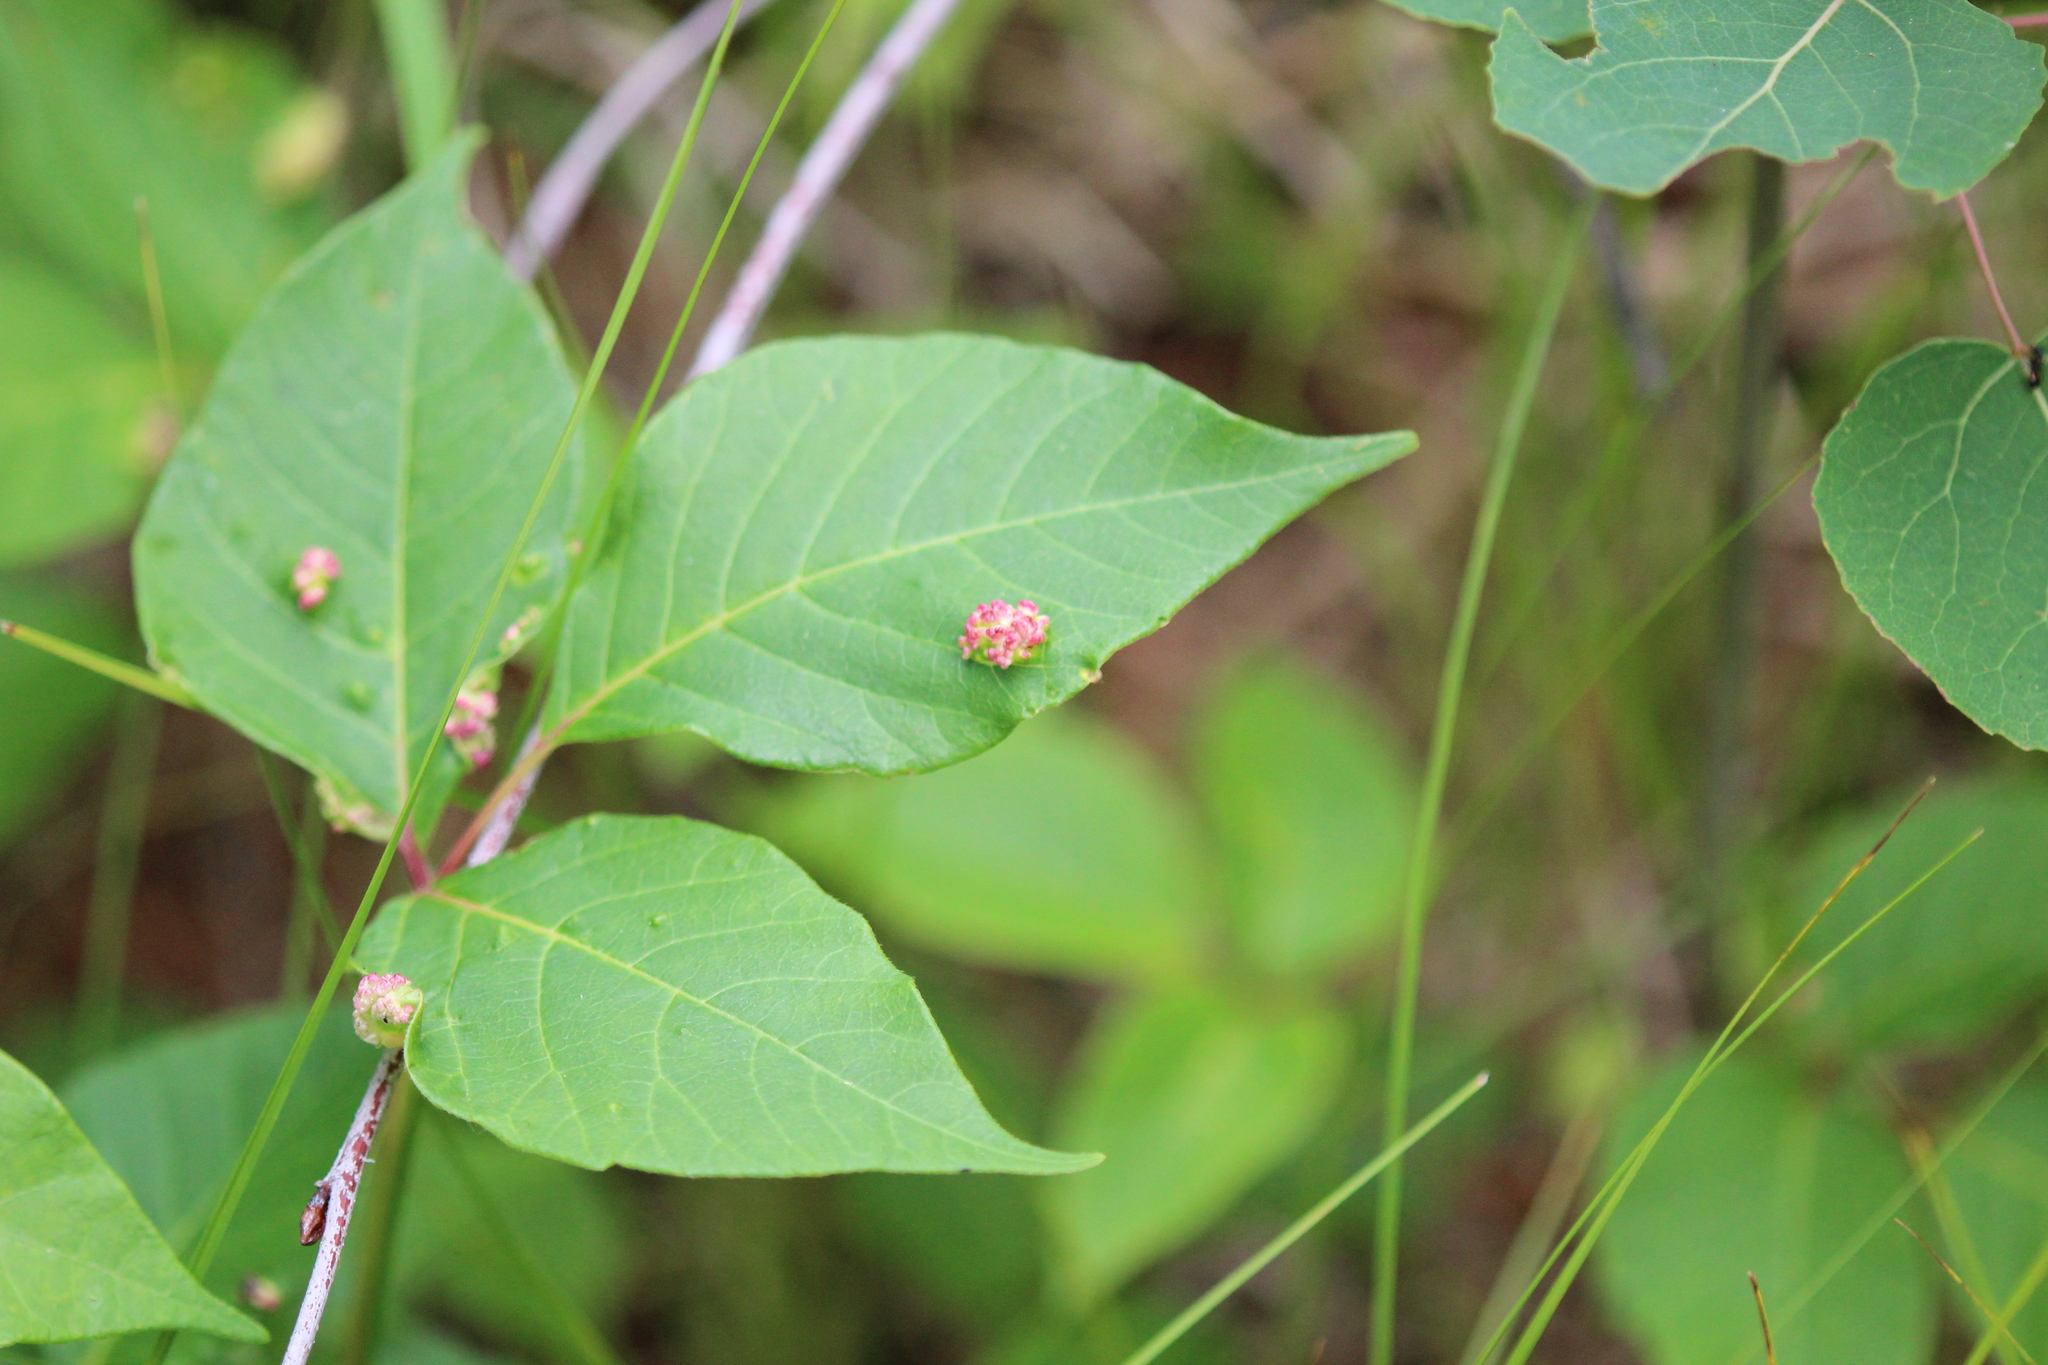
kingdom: Animalia
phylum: Arthropoda
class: Arachnida
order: Trombidiformes
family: Eriophyidae
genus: Aculops
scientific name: Aculops
